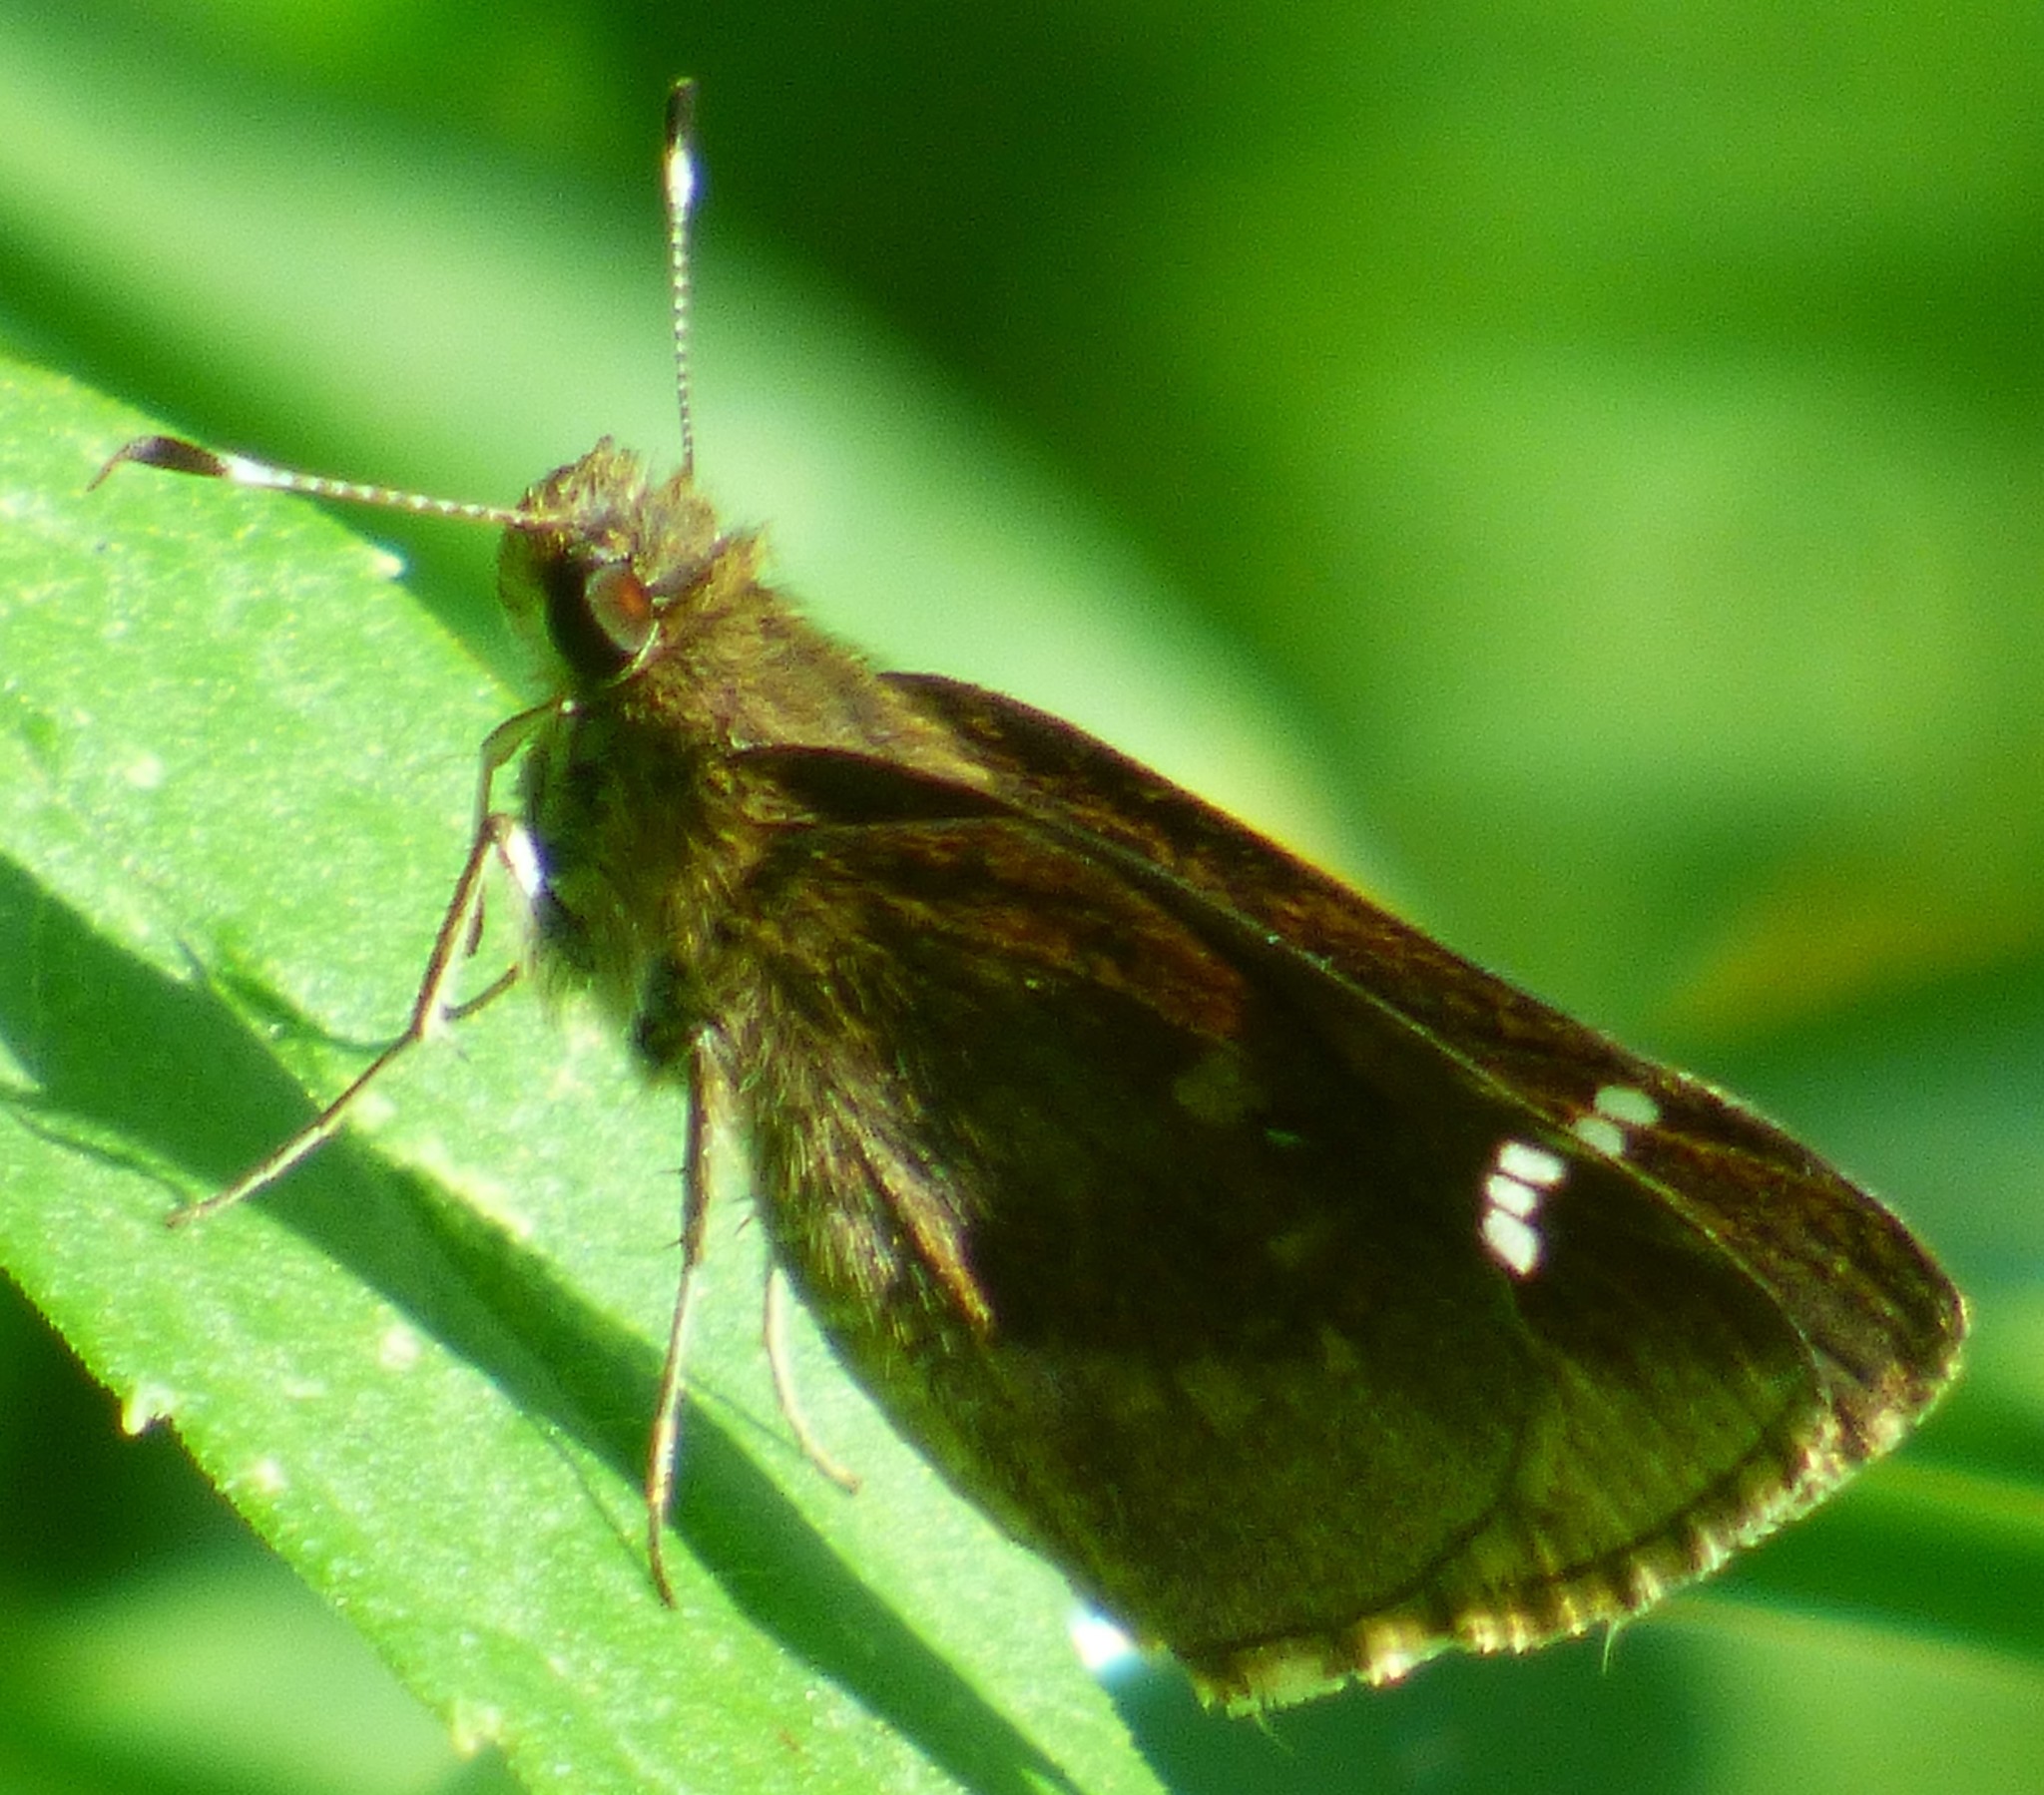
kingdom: Animalia
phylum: Arthropoda
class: Insecta
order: Lepidoptera
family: Hesperiidae
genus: Lerema
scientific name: Lerema accius
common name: Clouded skipper
